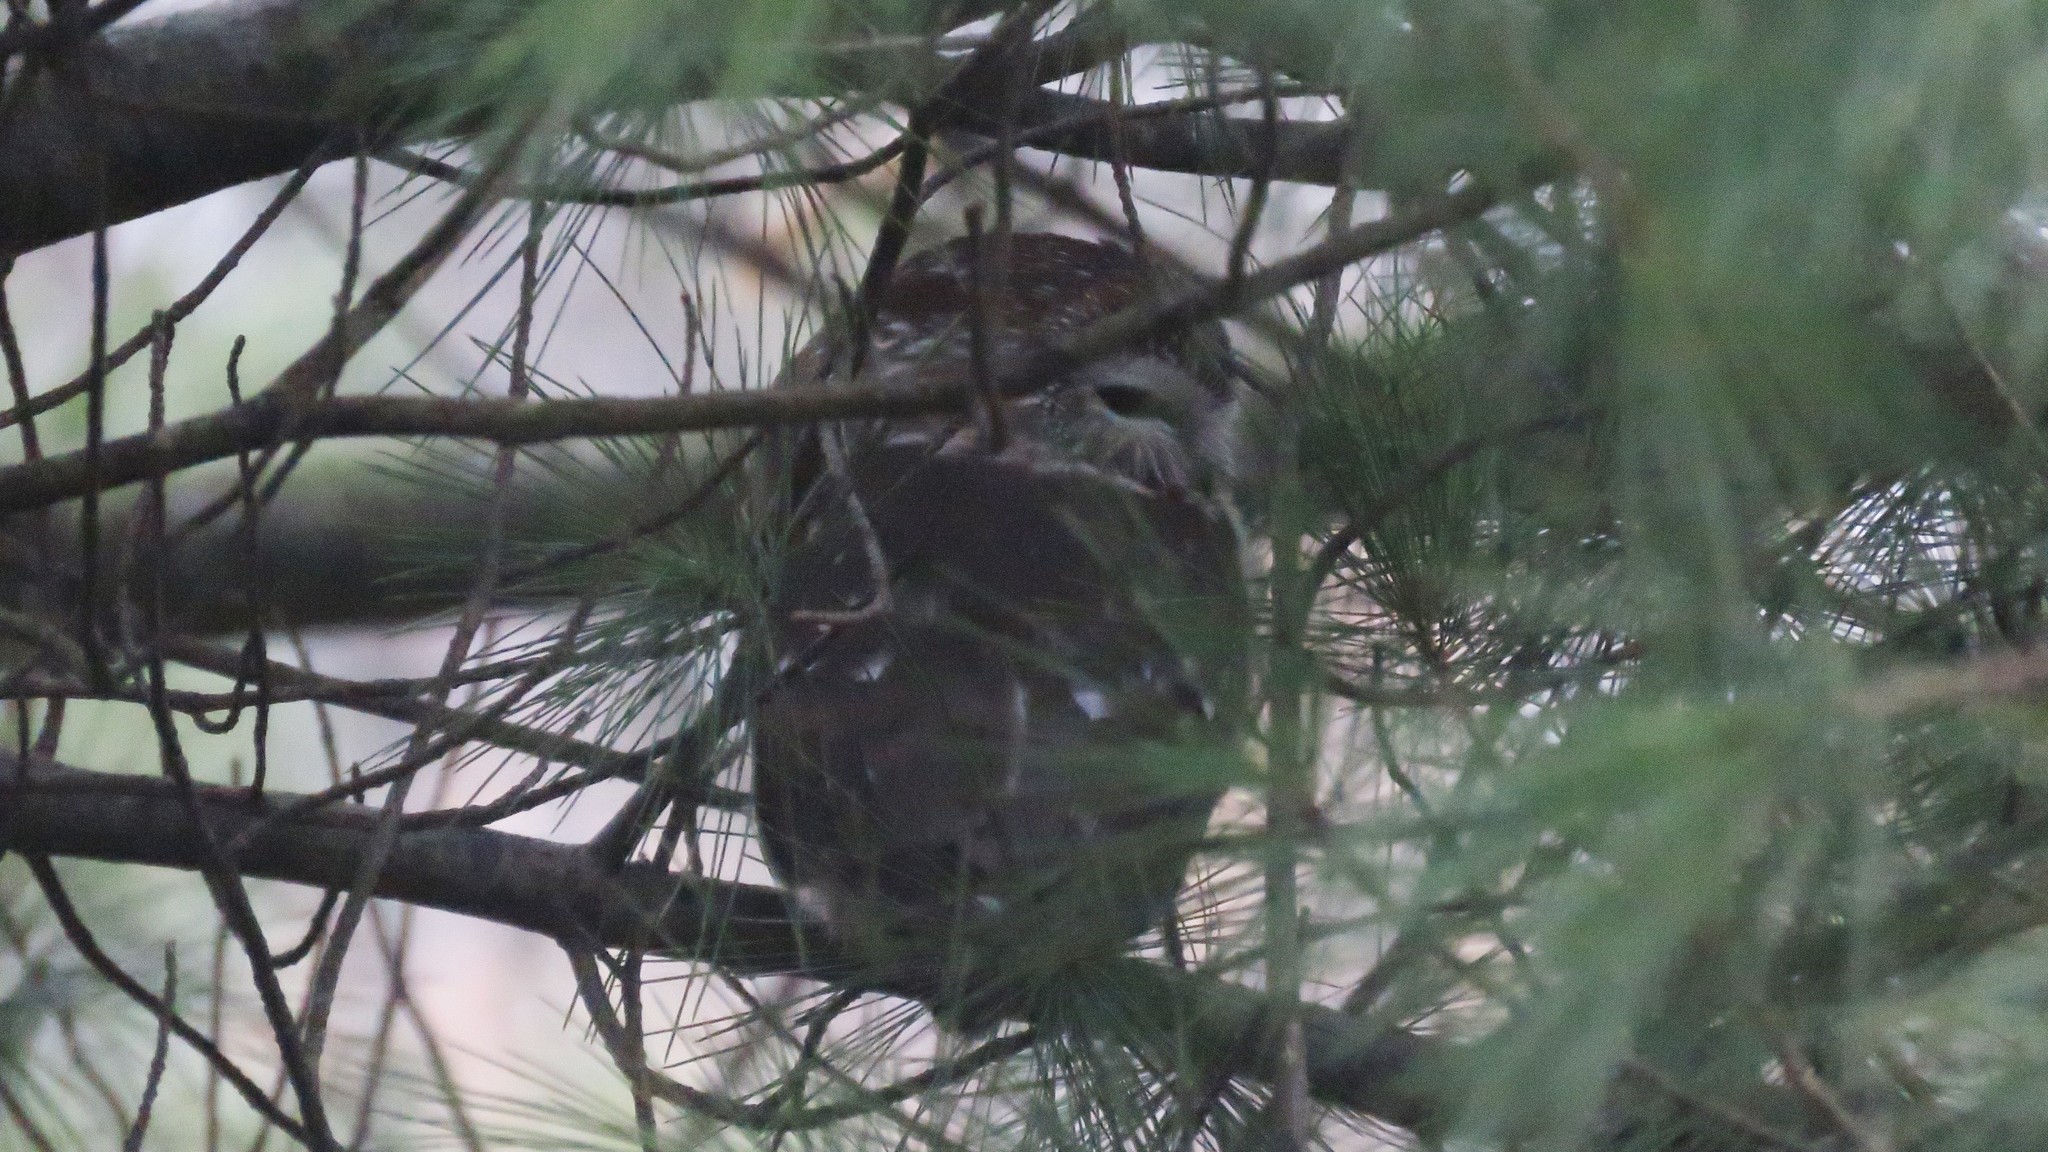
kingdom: Animalia
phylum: Chordata
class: Aves
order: Strigiformes
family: Strigidae
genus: Aegolius
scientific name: Aegolius acadicus
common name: Northern saw-whet owl
